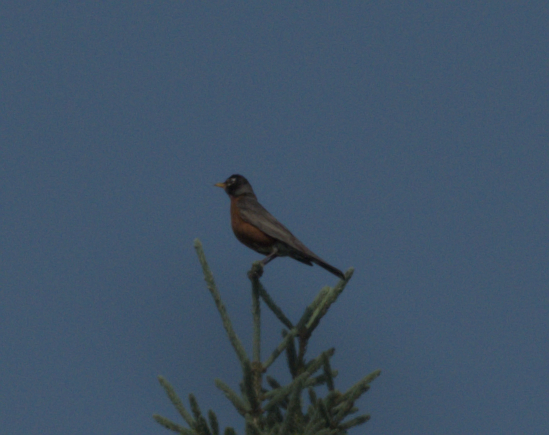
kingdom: Animalia
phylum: Chordata
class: Aves
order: Passeriformes
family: Turdidae
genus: Turdus
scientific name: Turdus migratorius
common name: American robin
